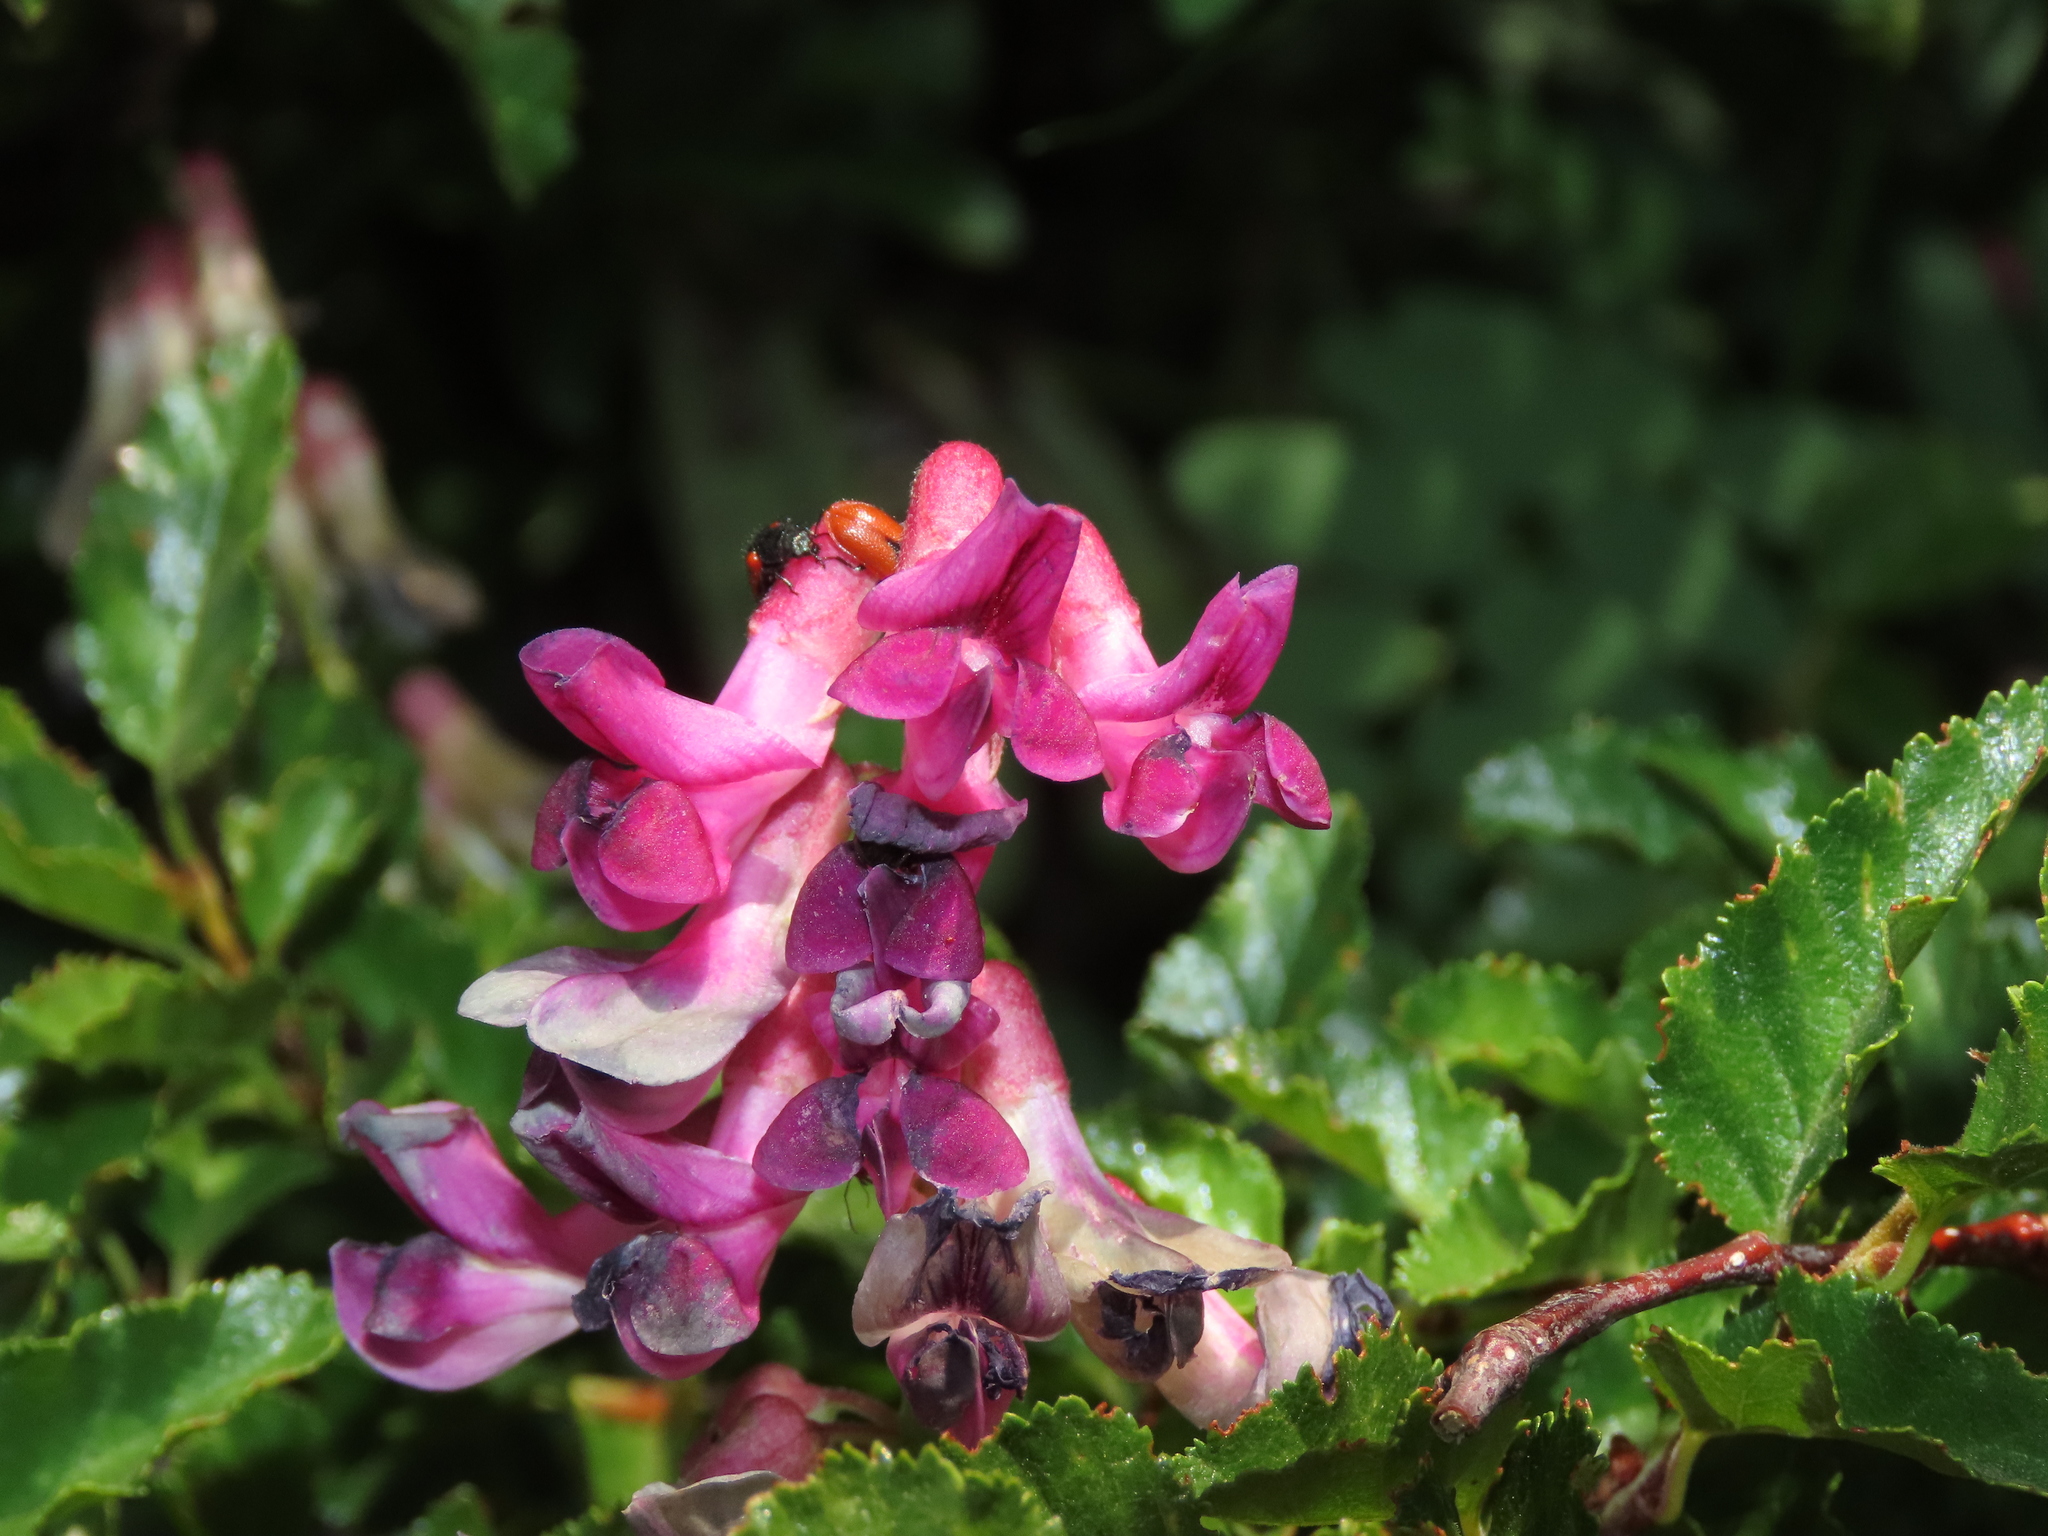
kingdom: Plantae
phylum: Tracheophyta
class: Magnoliopsida
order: Fabales
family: Fabaceae
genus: Vicia
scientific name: Vicia nigricans
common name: Black vetch
